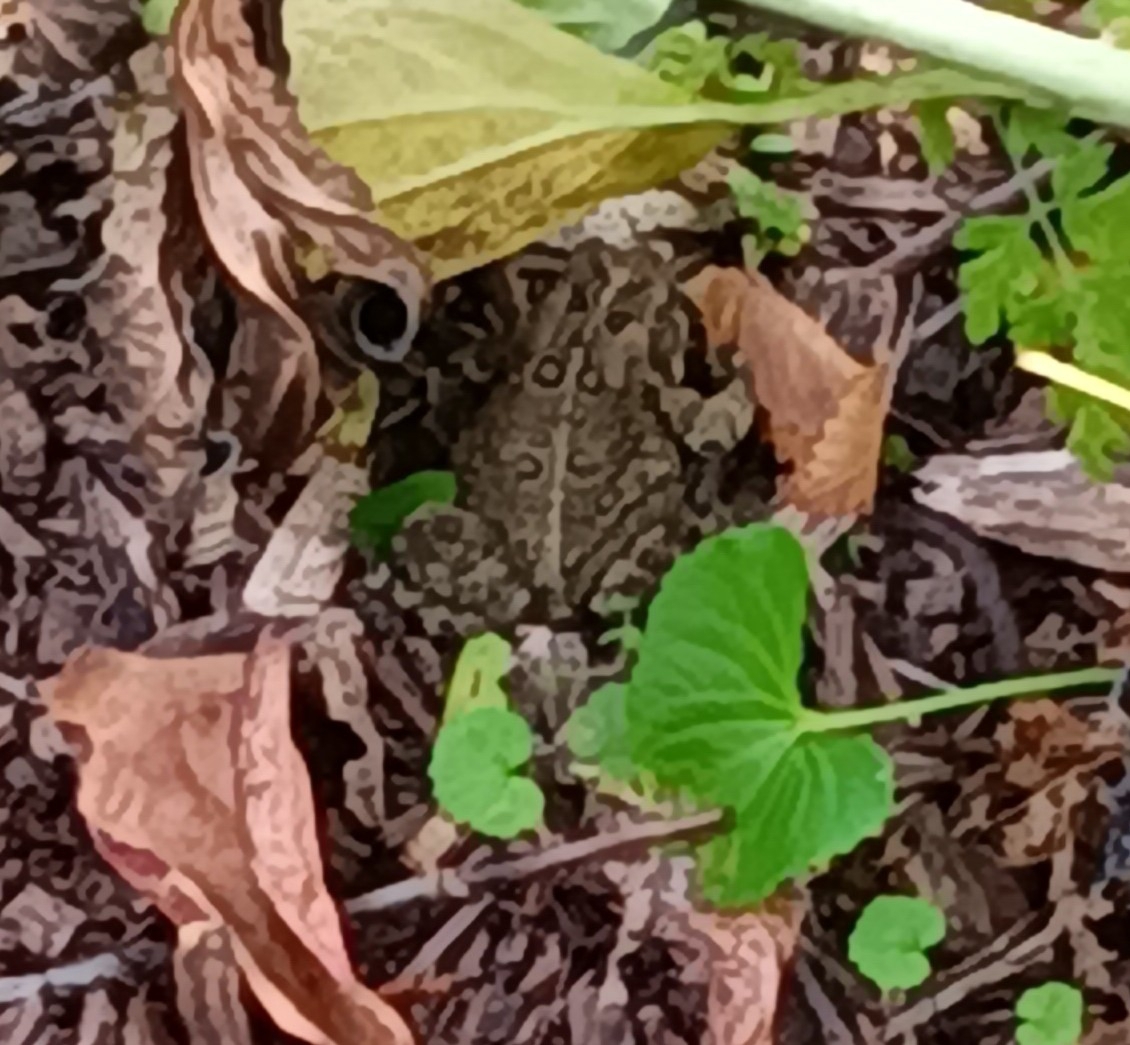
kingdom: Animalia
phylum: Chordata
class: Amphibia
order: Anura
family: Bufonidae
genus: Anaxyrus
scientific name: Anaxyrus americanus
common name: American toad
